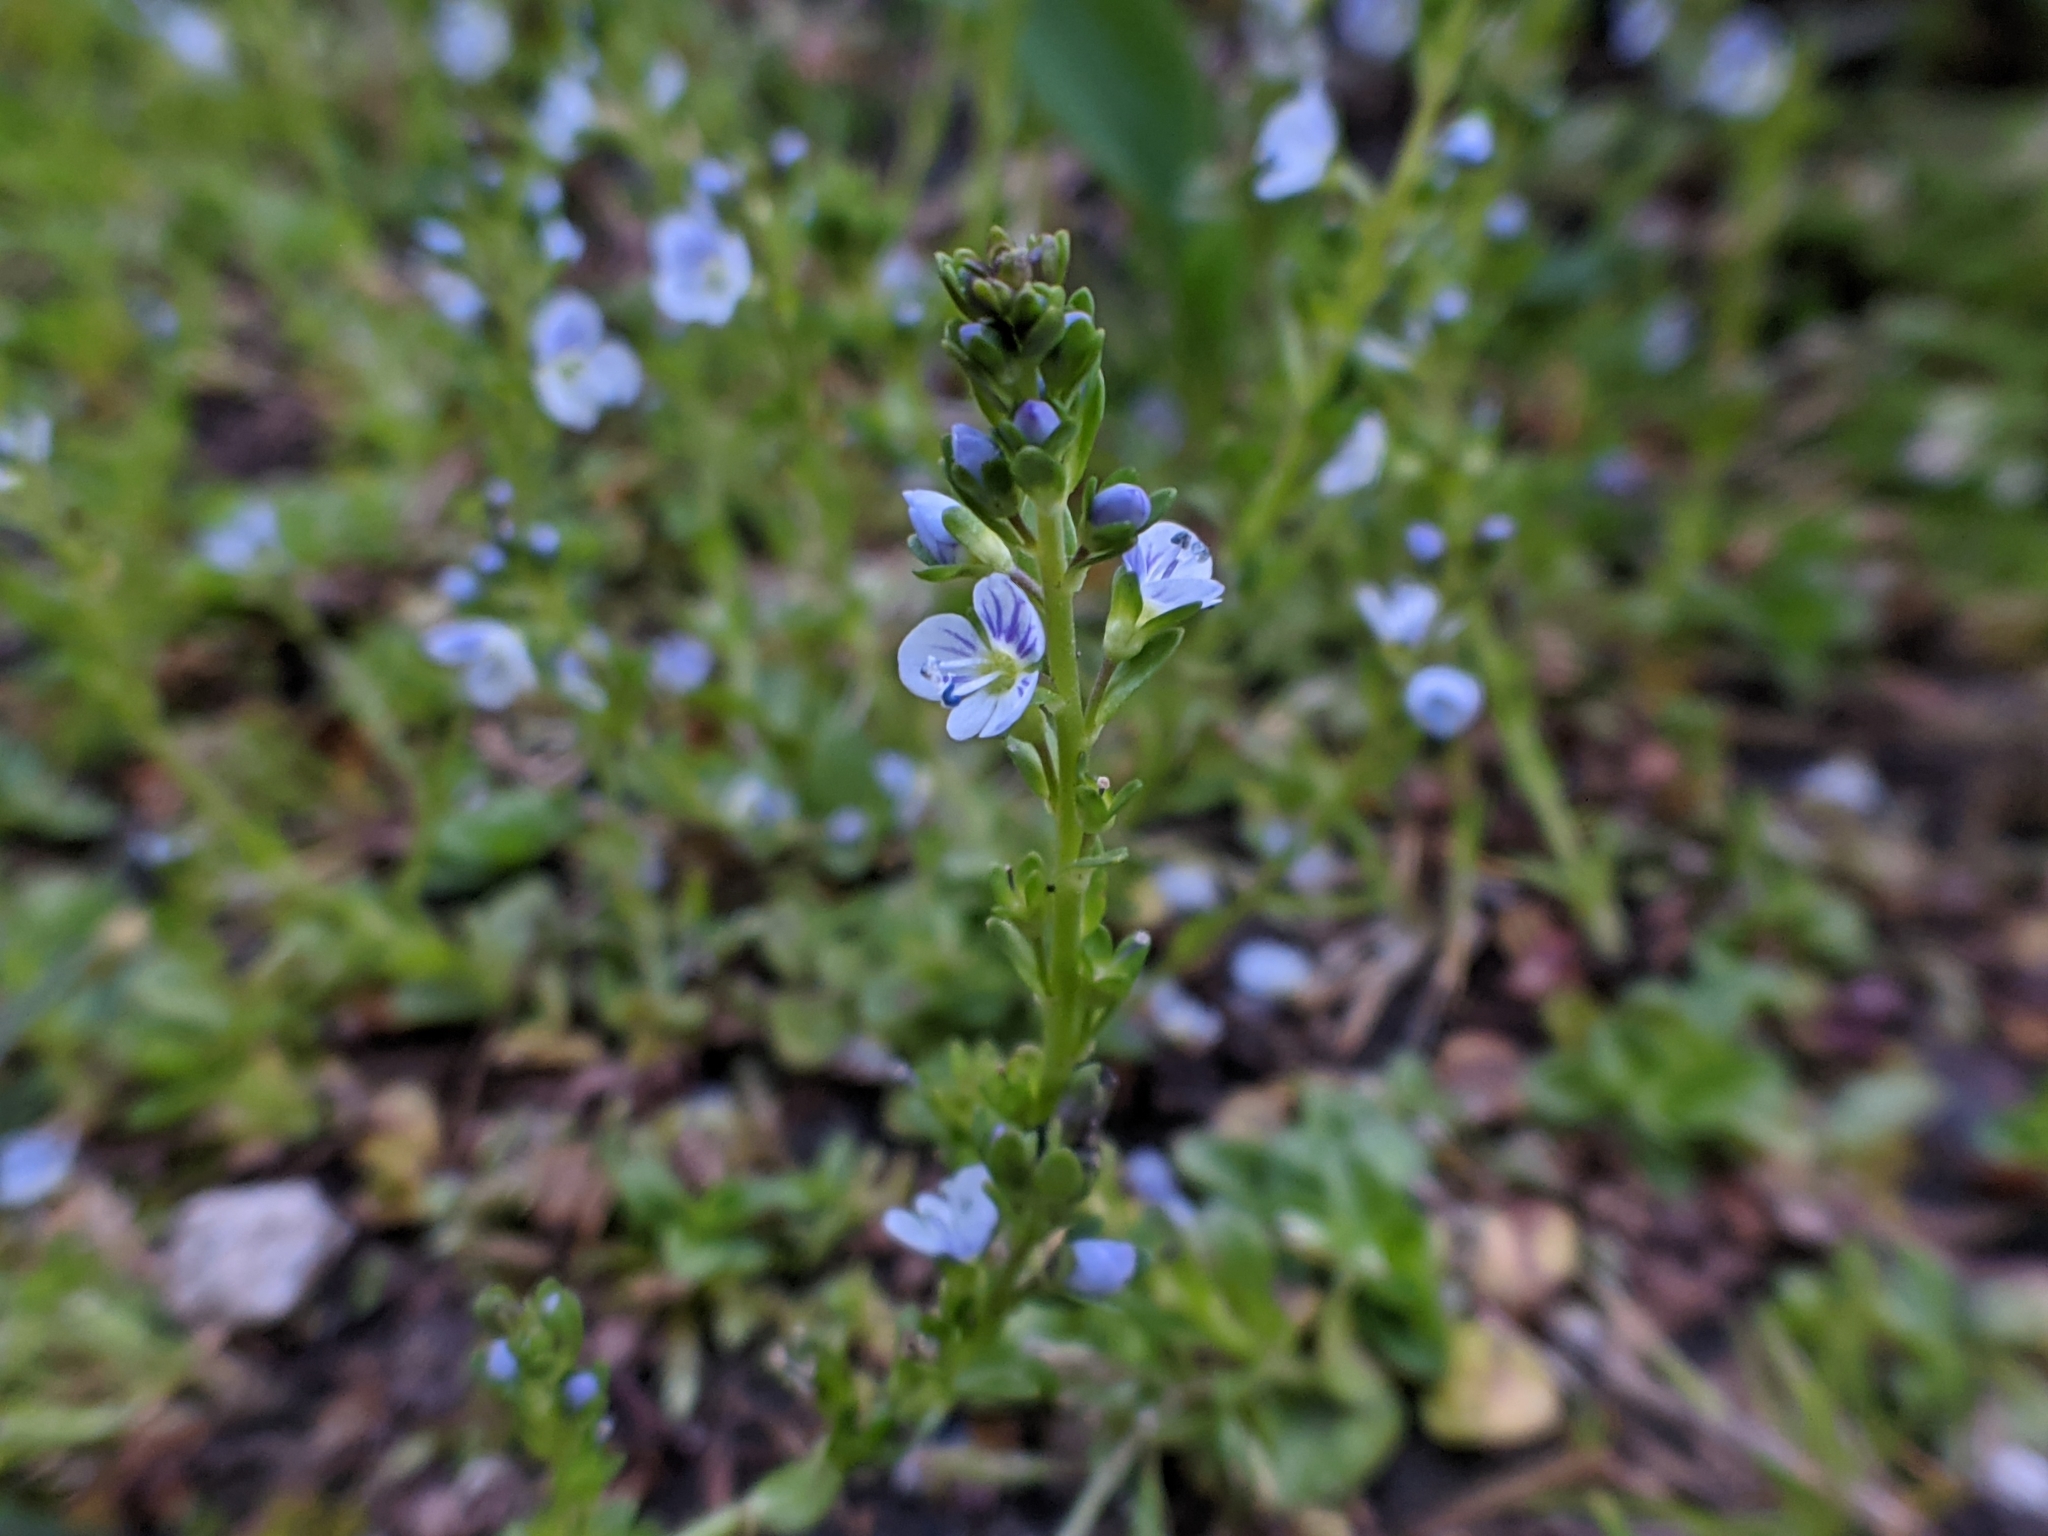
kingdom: Plantae
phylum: Tracheophyta
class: Magnoliopsida
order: Lamiales
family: Plantaginaceae
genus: Veronica
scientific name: Veronica serpyllifolia
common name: Thyme-leaved speedwell
